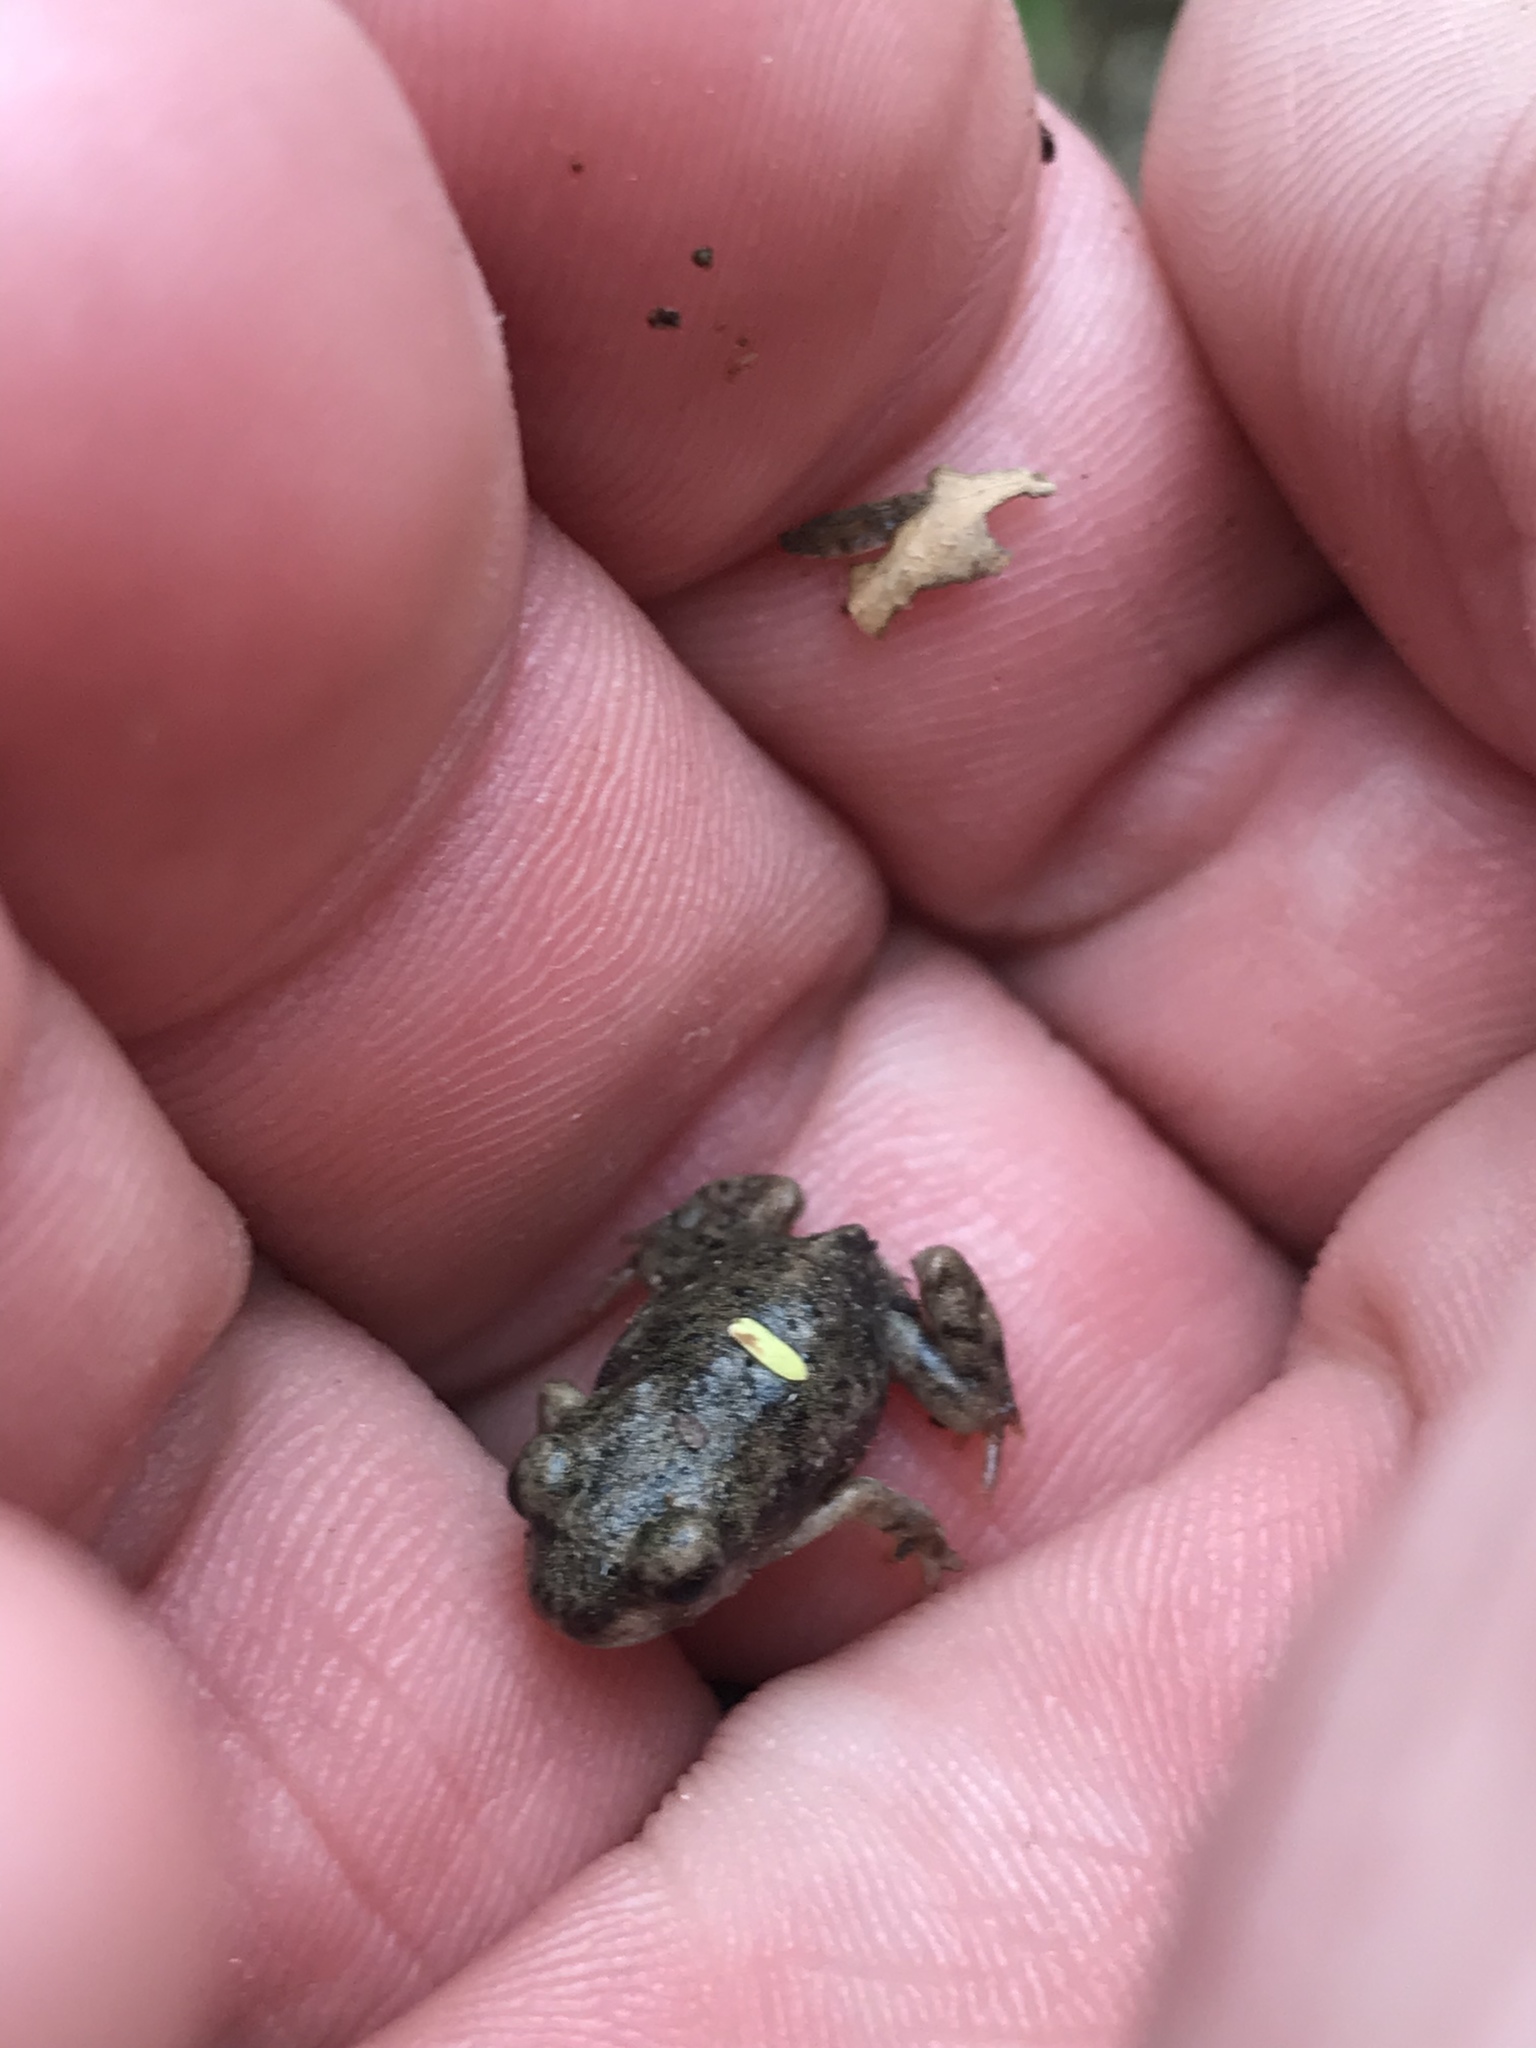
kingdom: Animalia
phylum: Chordata
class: Amphibia
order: Anura
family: Scaphiopodidae
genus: Scaphiopus
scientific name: Scaphiopus hurterii
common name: Hurter's spadefoot toad
